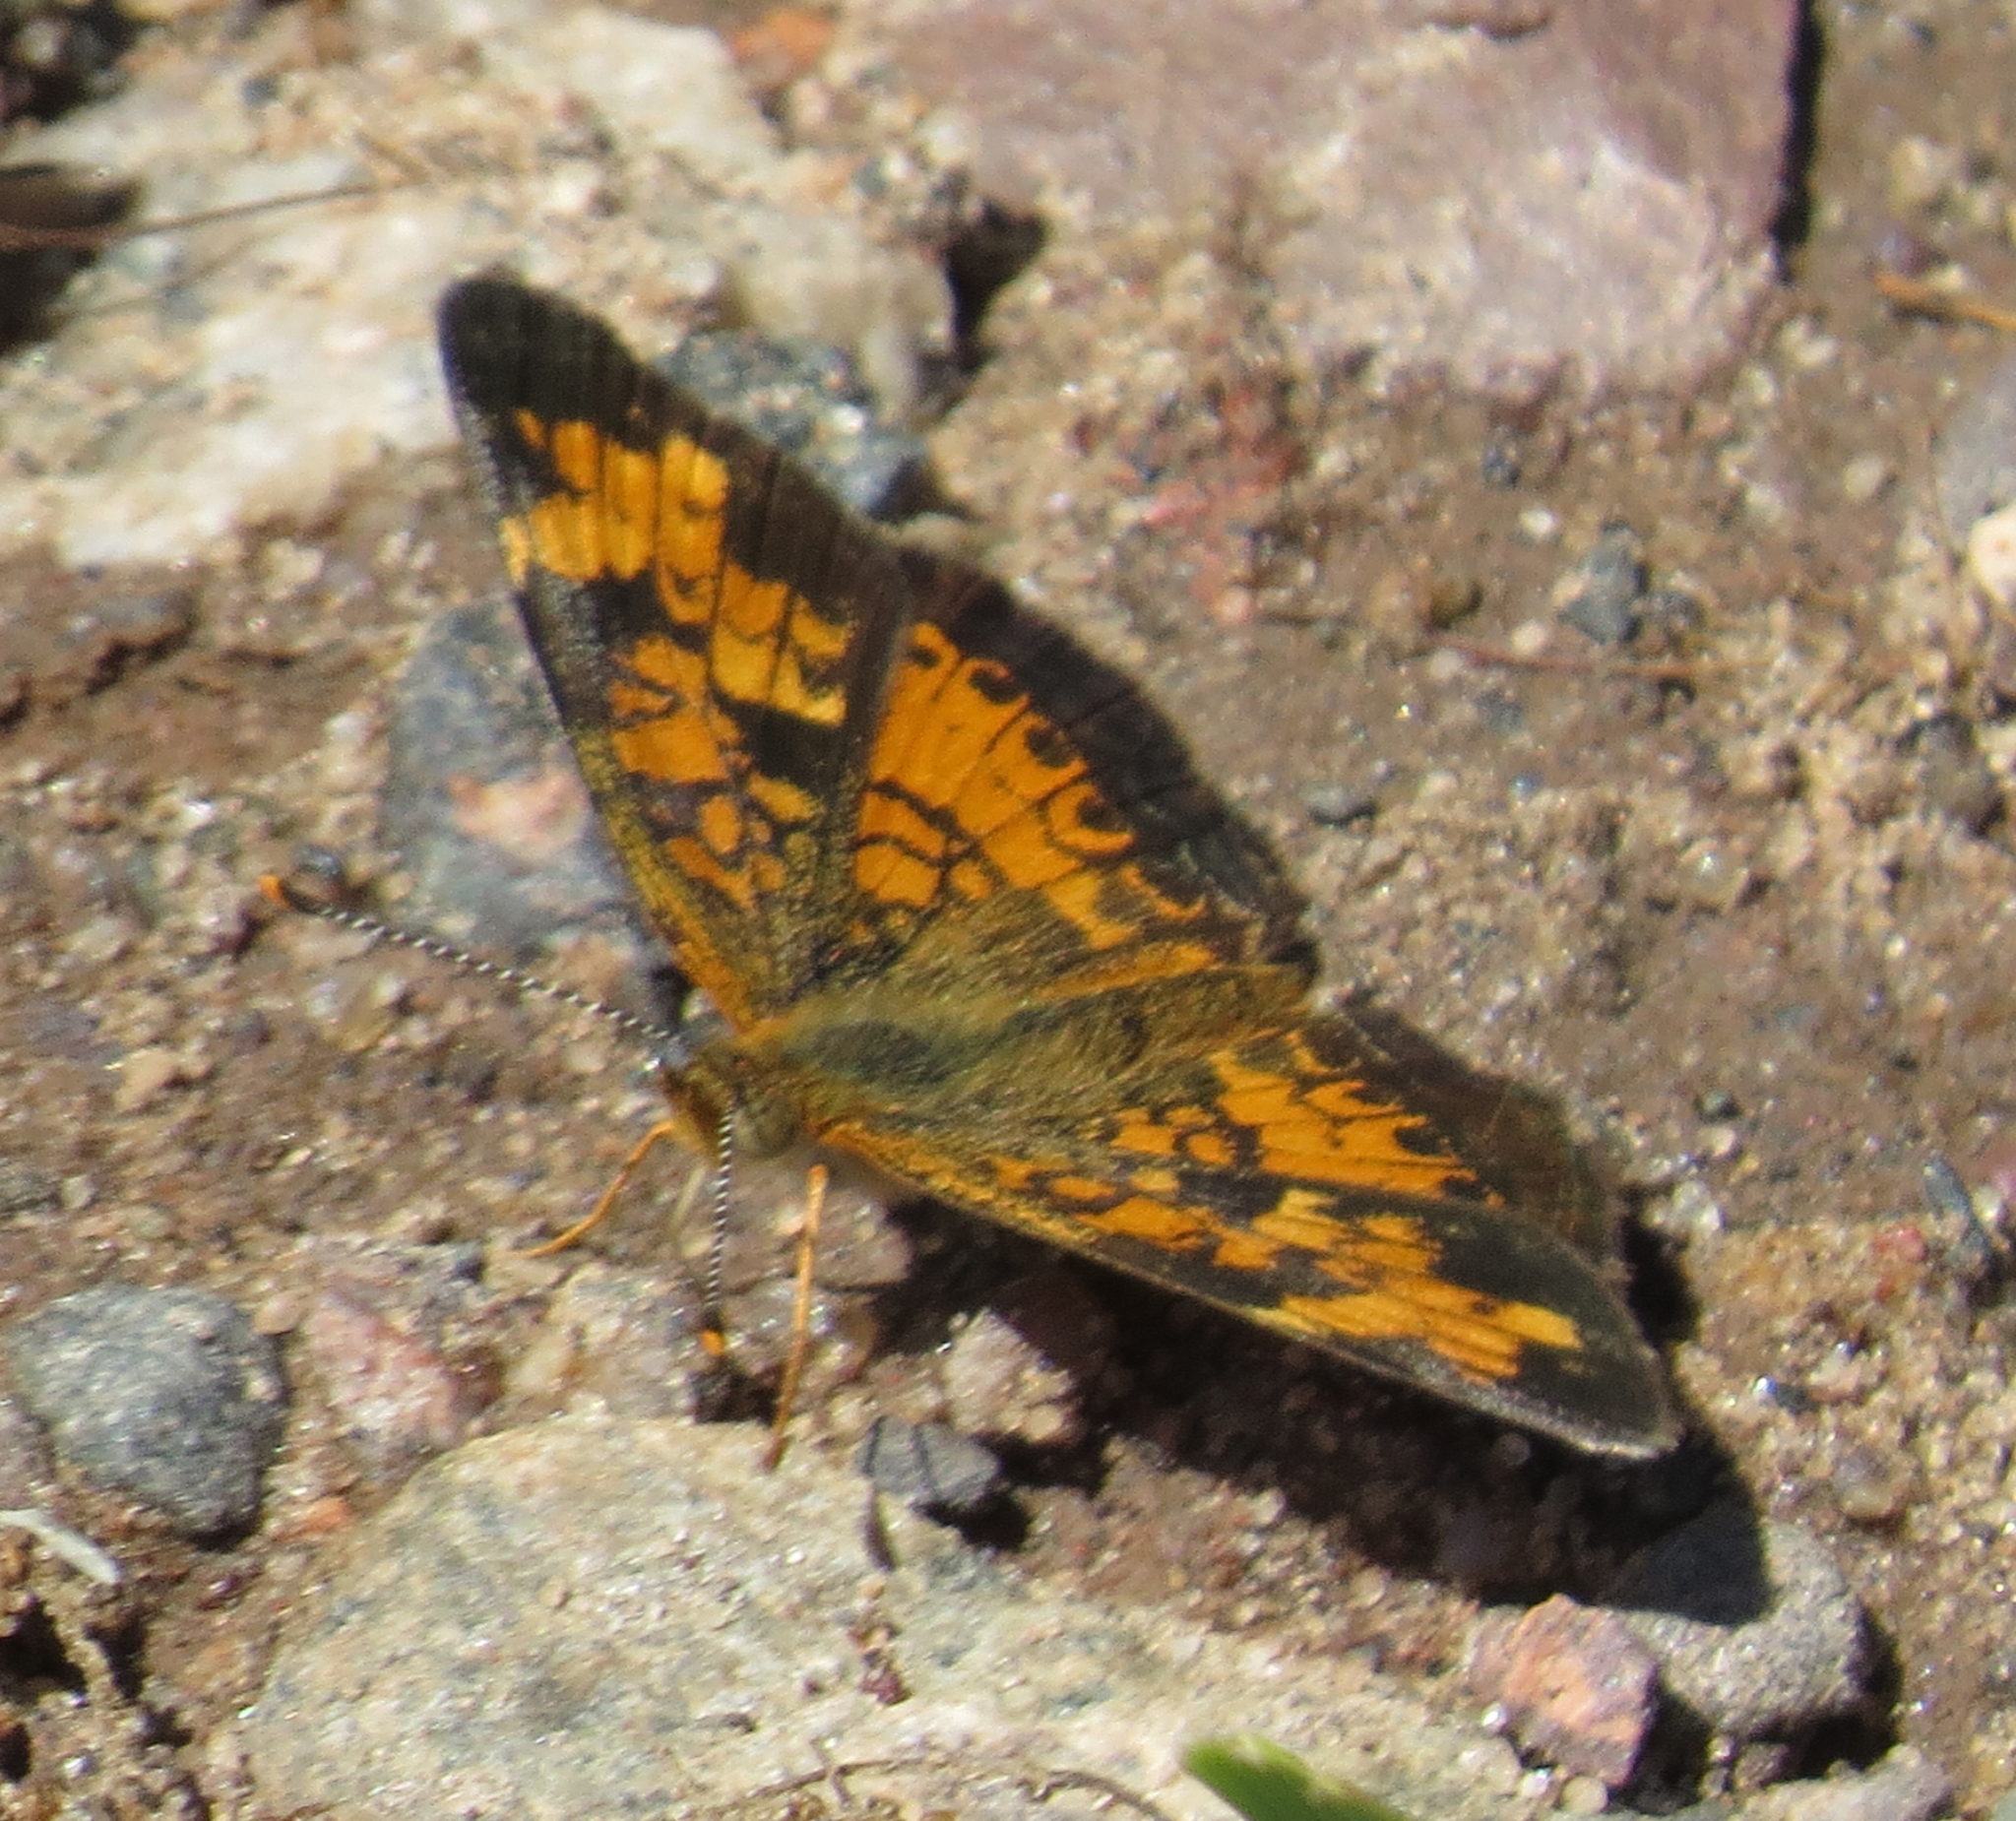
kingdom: Animalia
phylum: Arthropoda
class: Insecta
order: Lepidoptera
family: Nymphalidae
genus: Phyciodes
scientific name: Phyciodes tharos
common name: Pearl crescent
